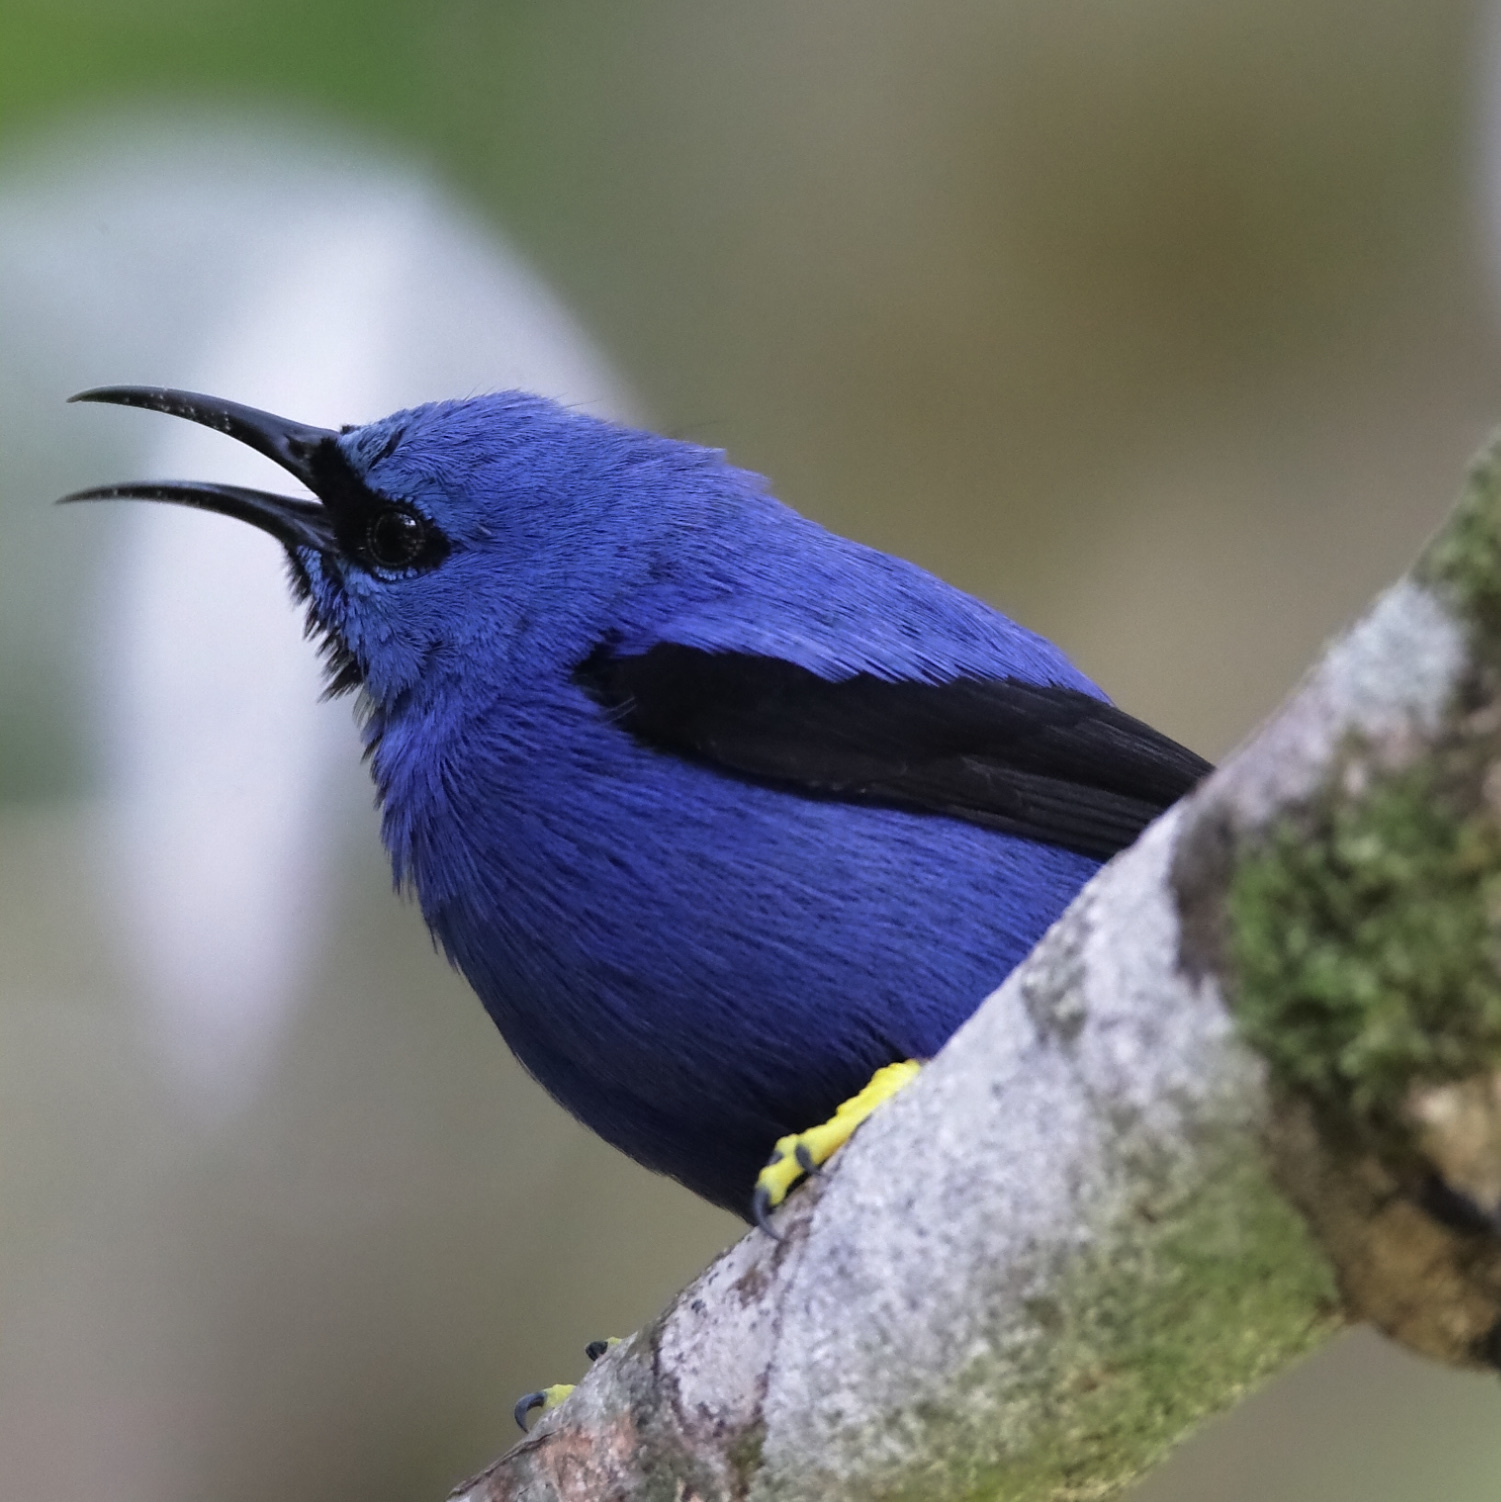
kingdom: Animalia
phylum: Chordata
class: Aves
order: Passeriformes
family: Thraupidae
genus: Cyanerpes
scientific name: Cyanerpes lucidus
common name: Shining honeycreeper
